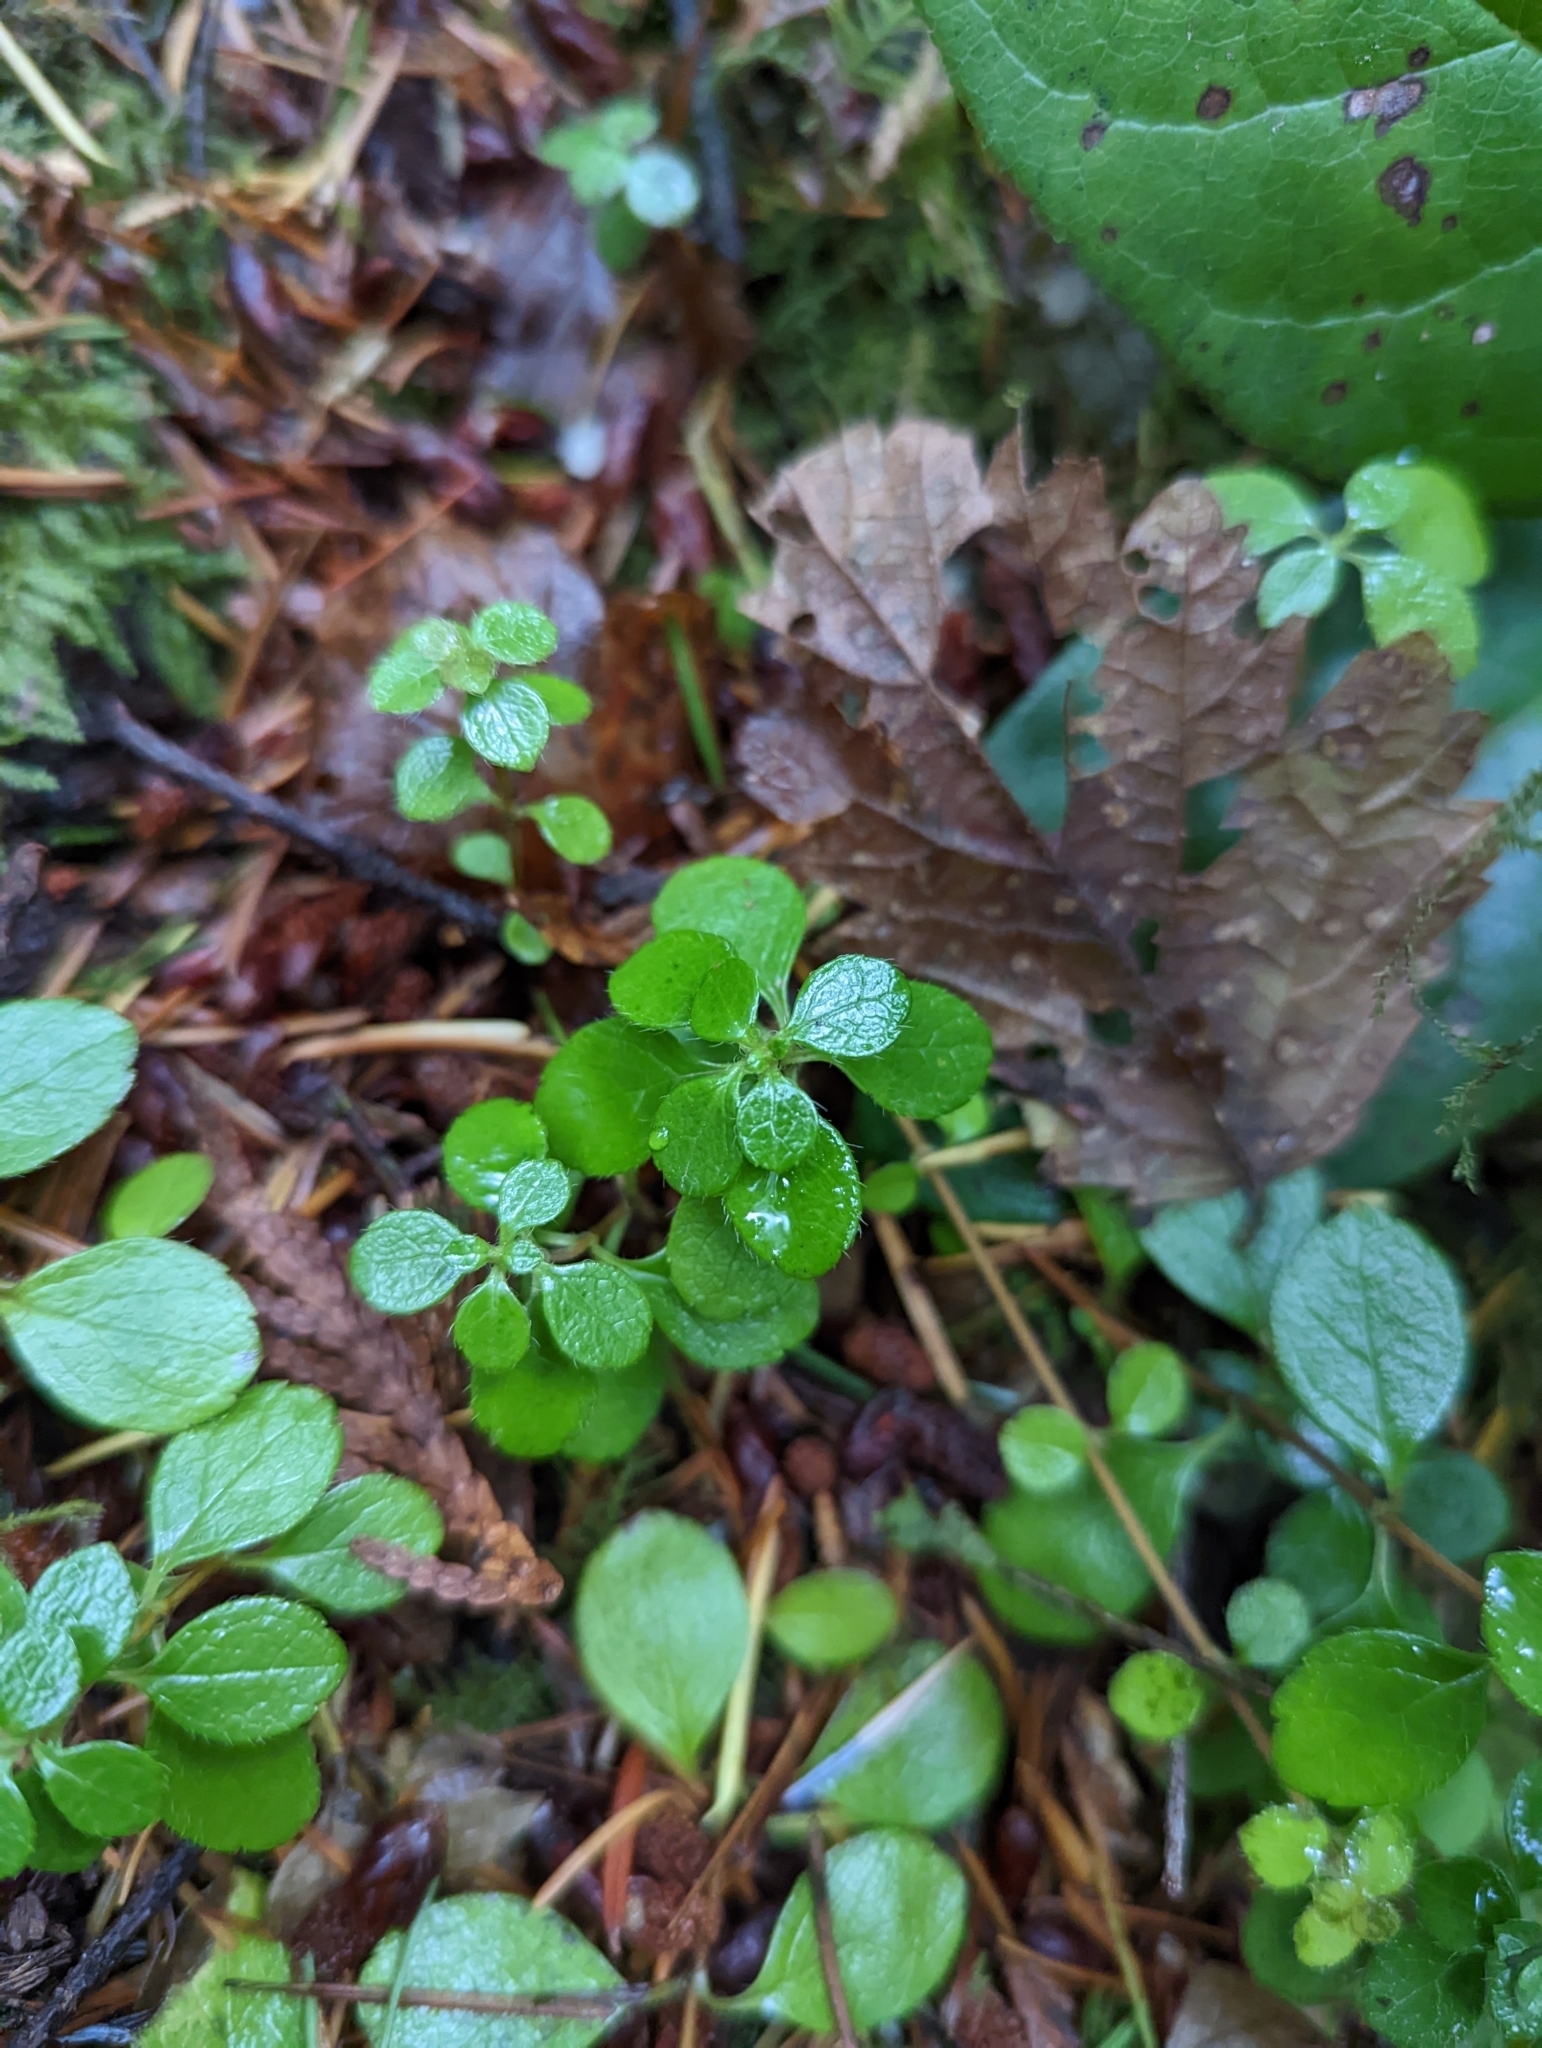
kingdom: Plantae
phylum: Tracheophyta
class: Magnoliopsida
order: Dipsacales
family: Caprifoliaceae
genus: Linnaea
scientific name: Linnaea borealis
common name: Twinflower
